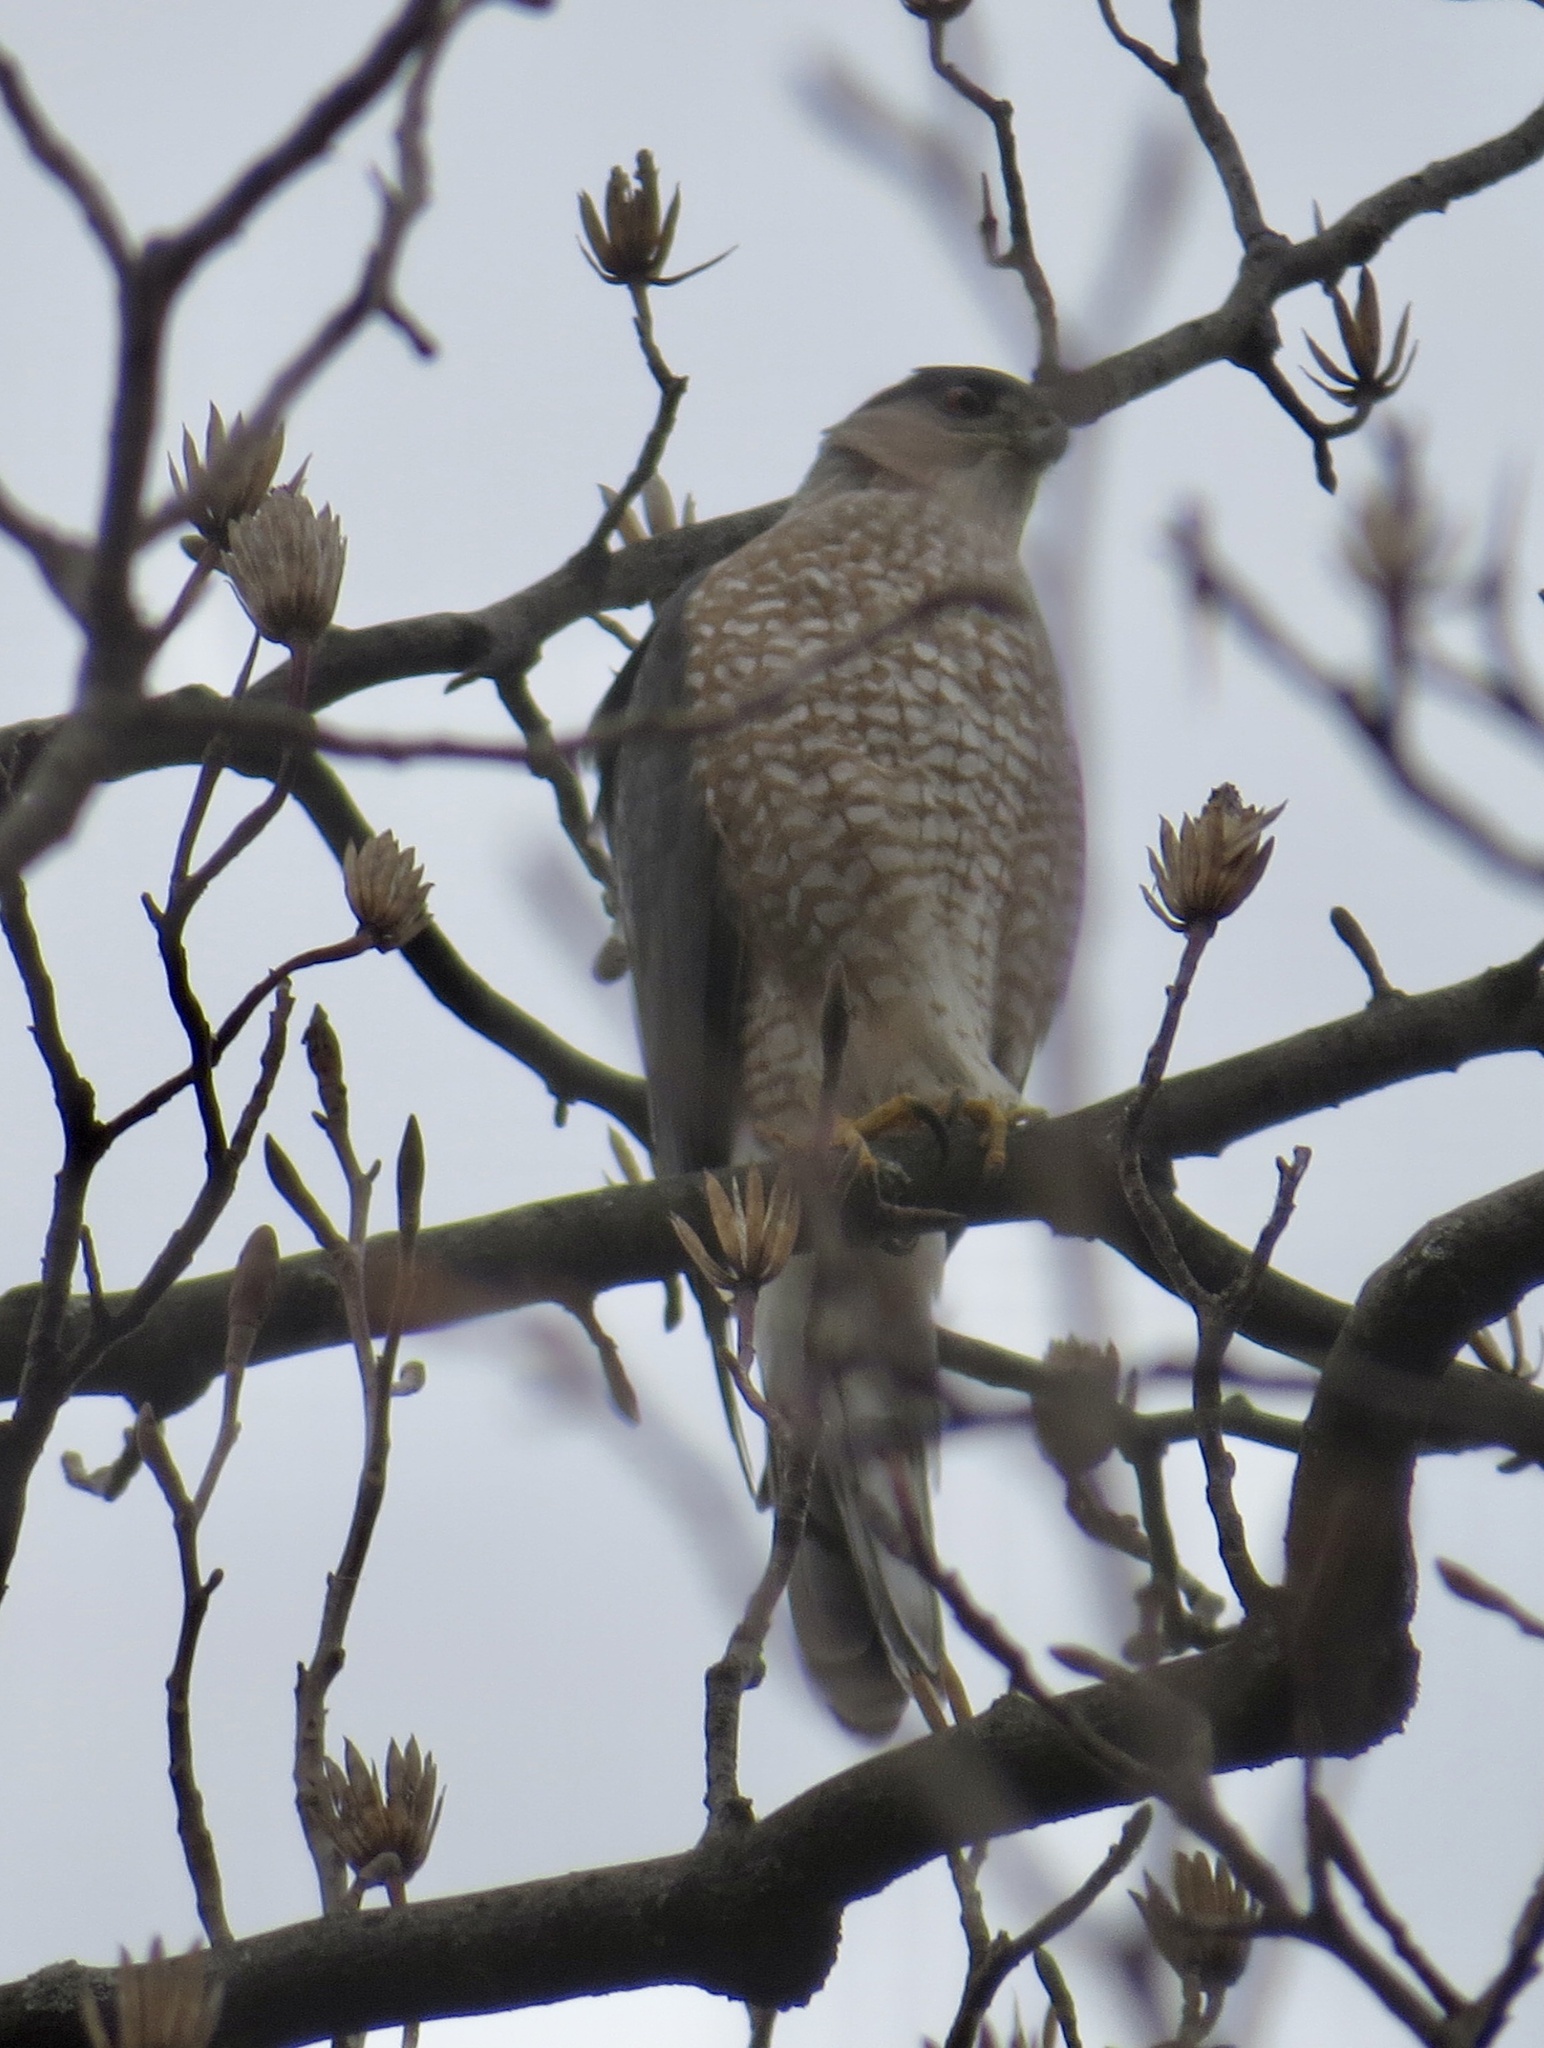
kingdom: Animalia
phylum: Chordata
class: Aves
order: Accipitriformes
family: Accipitridae
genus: Accipiter
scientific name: Accipiter cooperii
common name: Cooper's hawk
